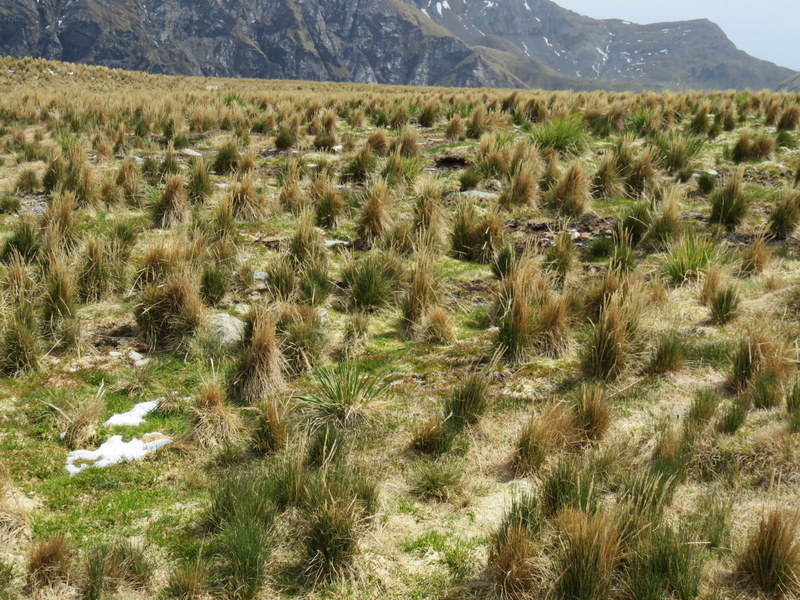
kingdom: Plantae
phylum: Tracheophyta
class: Liliopsida
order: Poales
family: Poaceae
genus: Poa
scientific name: Poa flabellata
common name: Tussac-grass
